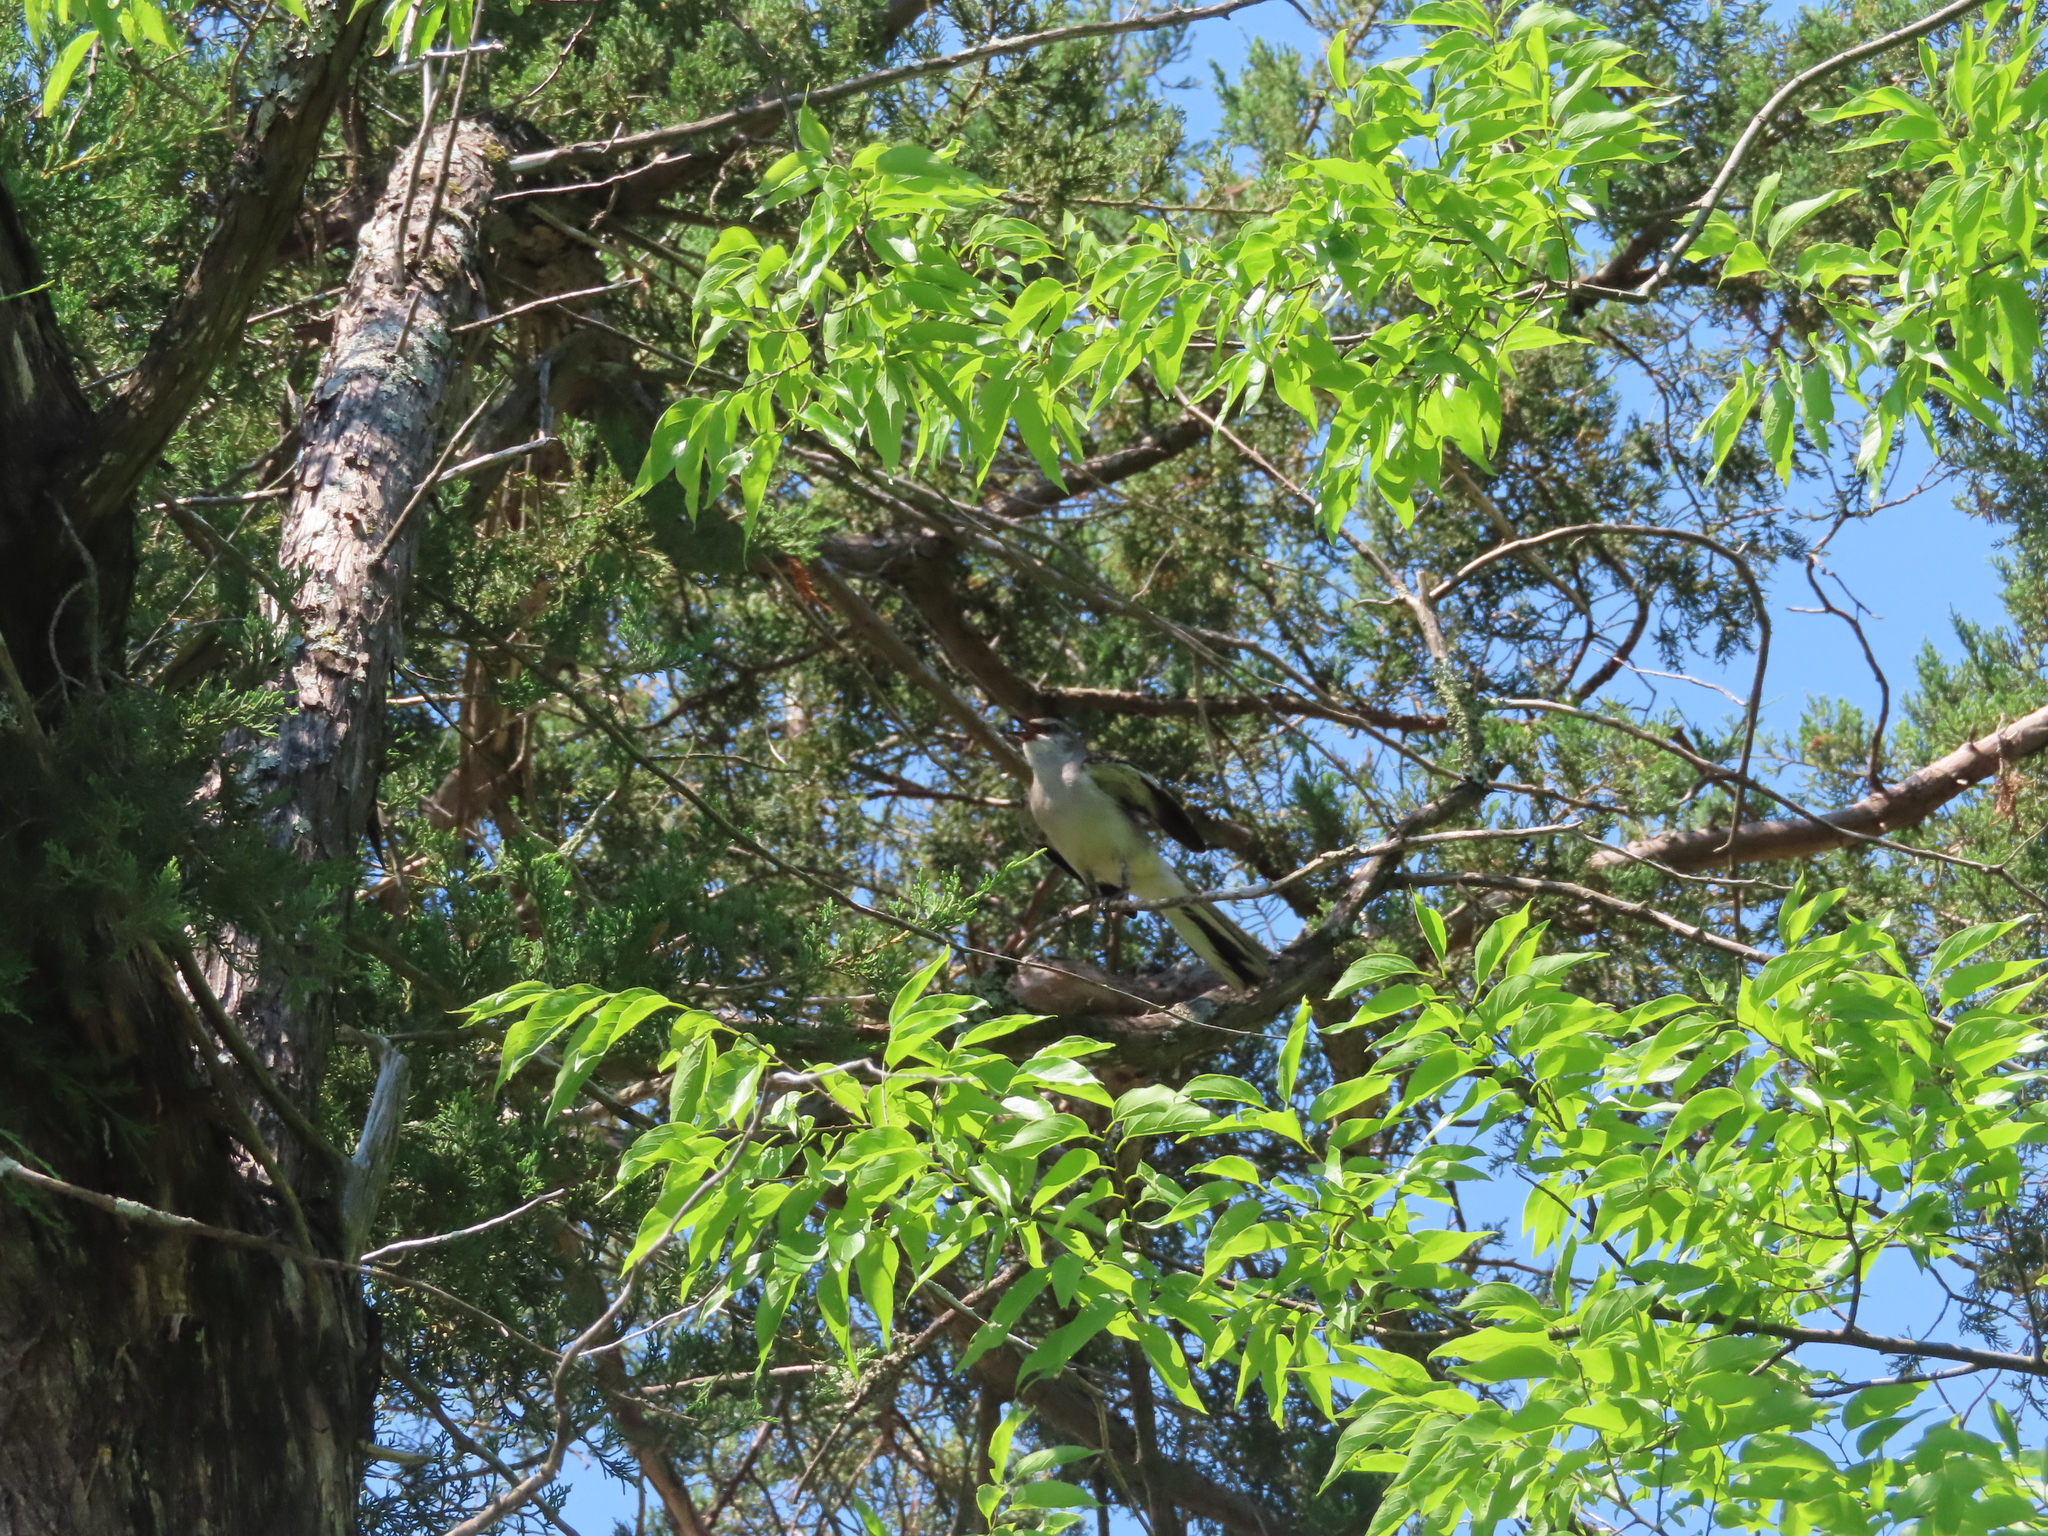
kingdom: Animalia
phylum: Chordata
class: Aves
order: Passeriformes
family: Mimidae
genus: Mimus
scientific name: Mimus polyglottos
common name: Northern mockingbird
